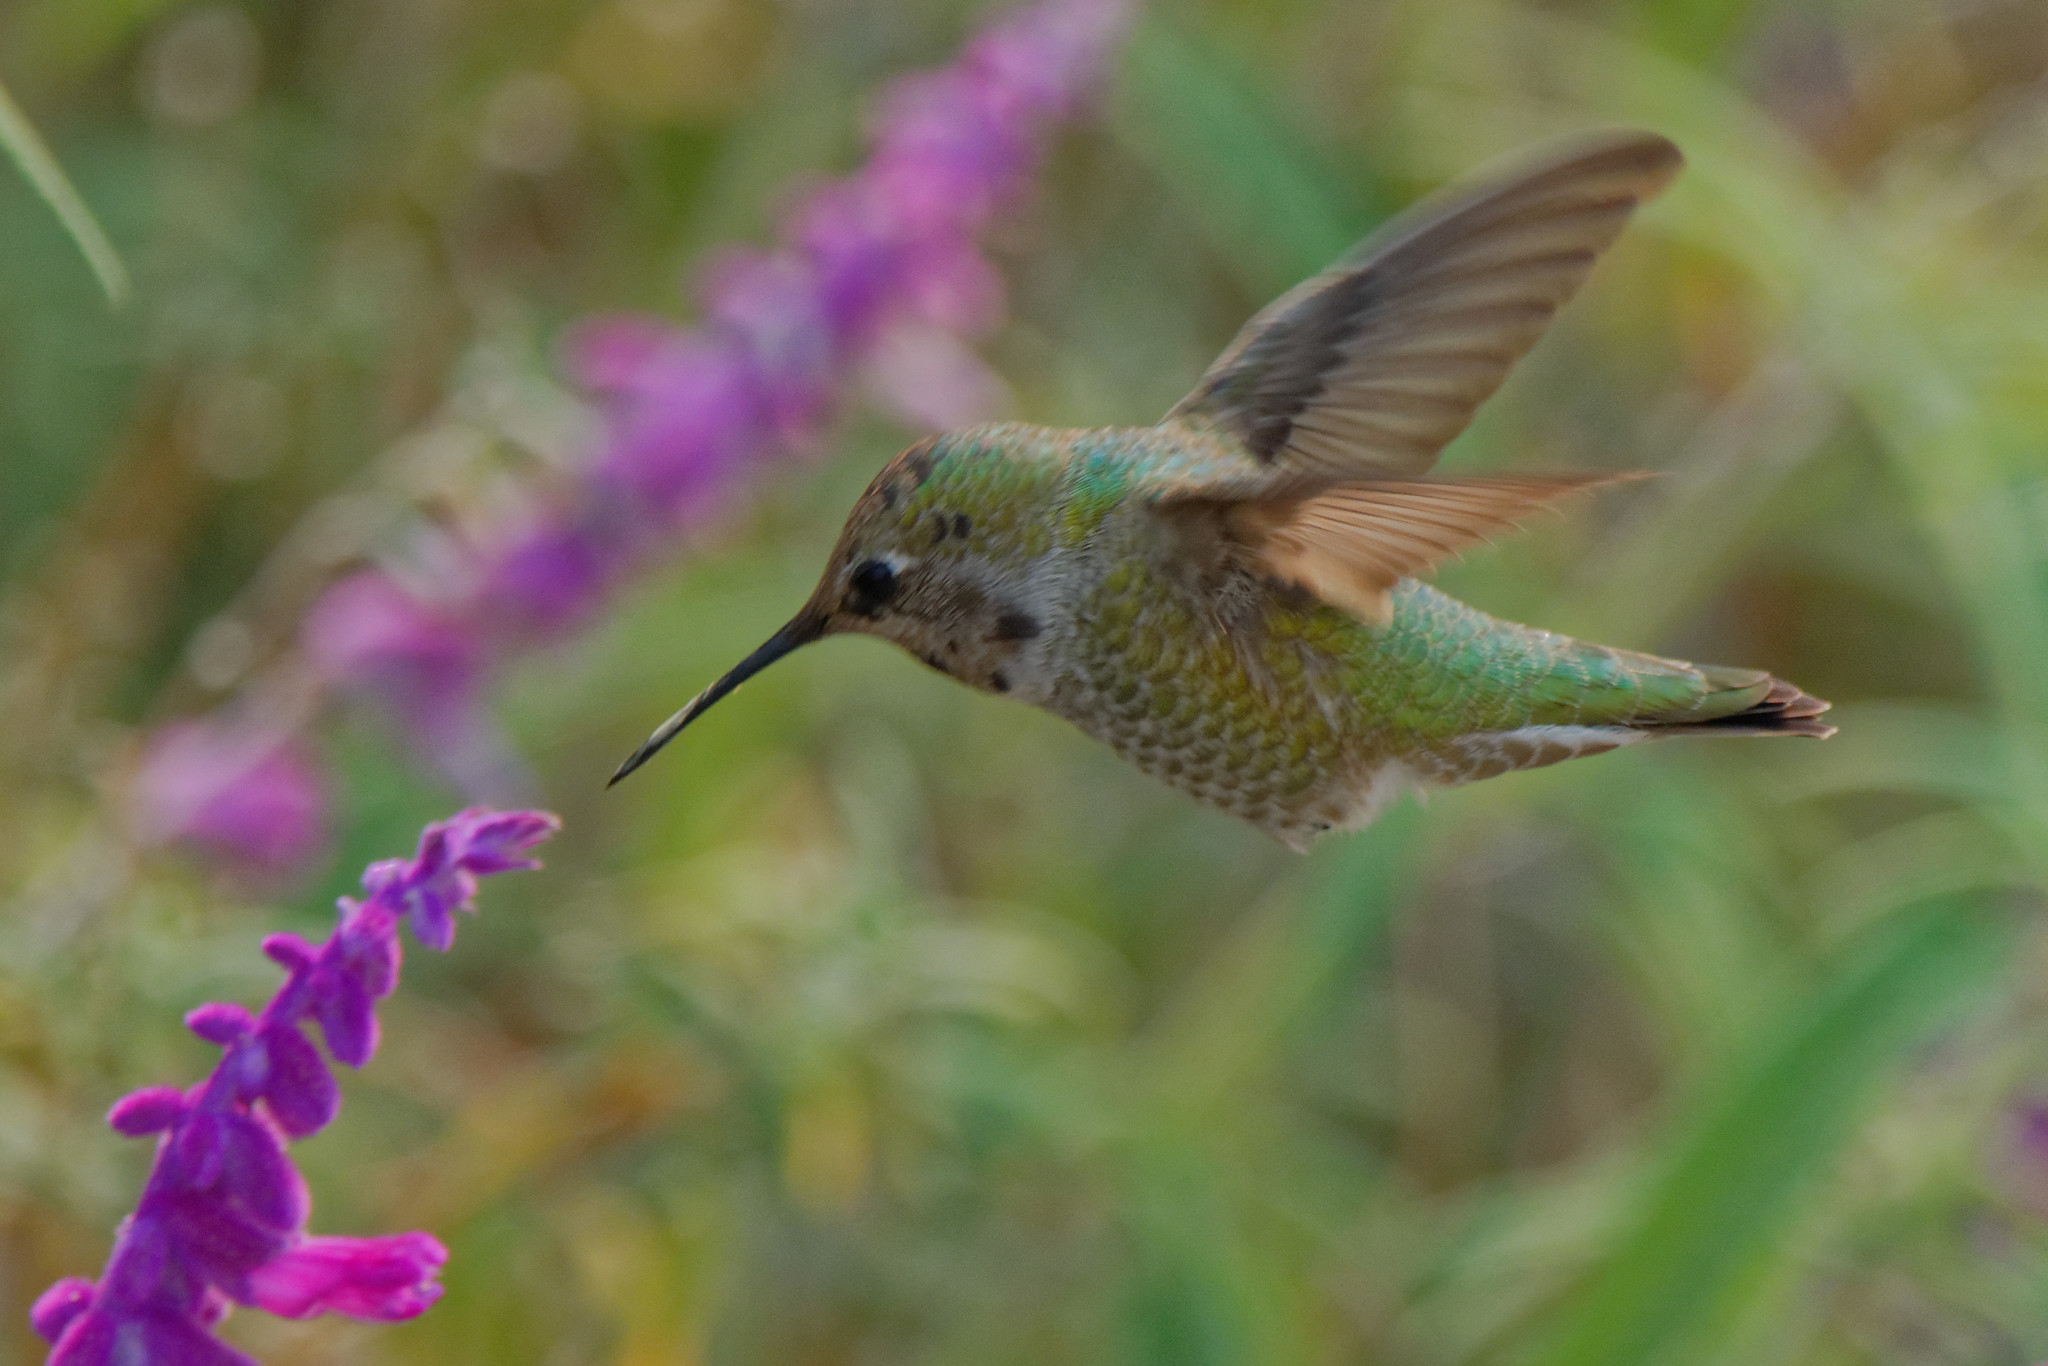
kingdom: Animalia
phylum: Chordata
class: Aves
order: Apodiformes
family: Trochilidae
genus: Calypte
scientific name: Calypte anna
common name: Anna's hummingbird
